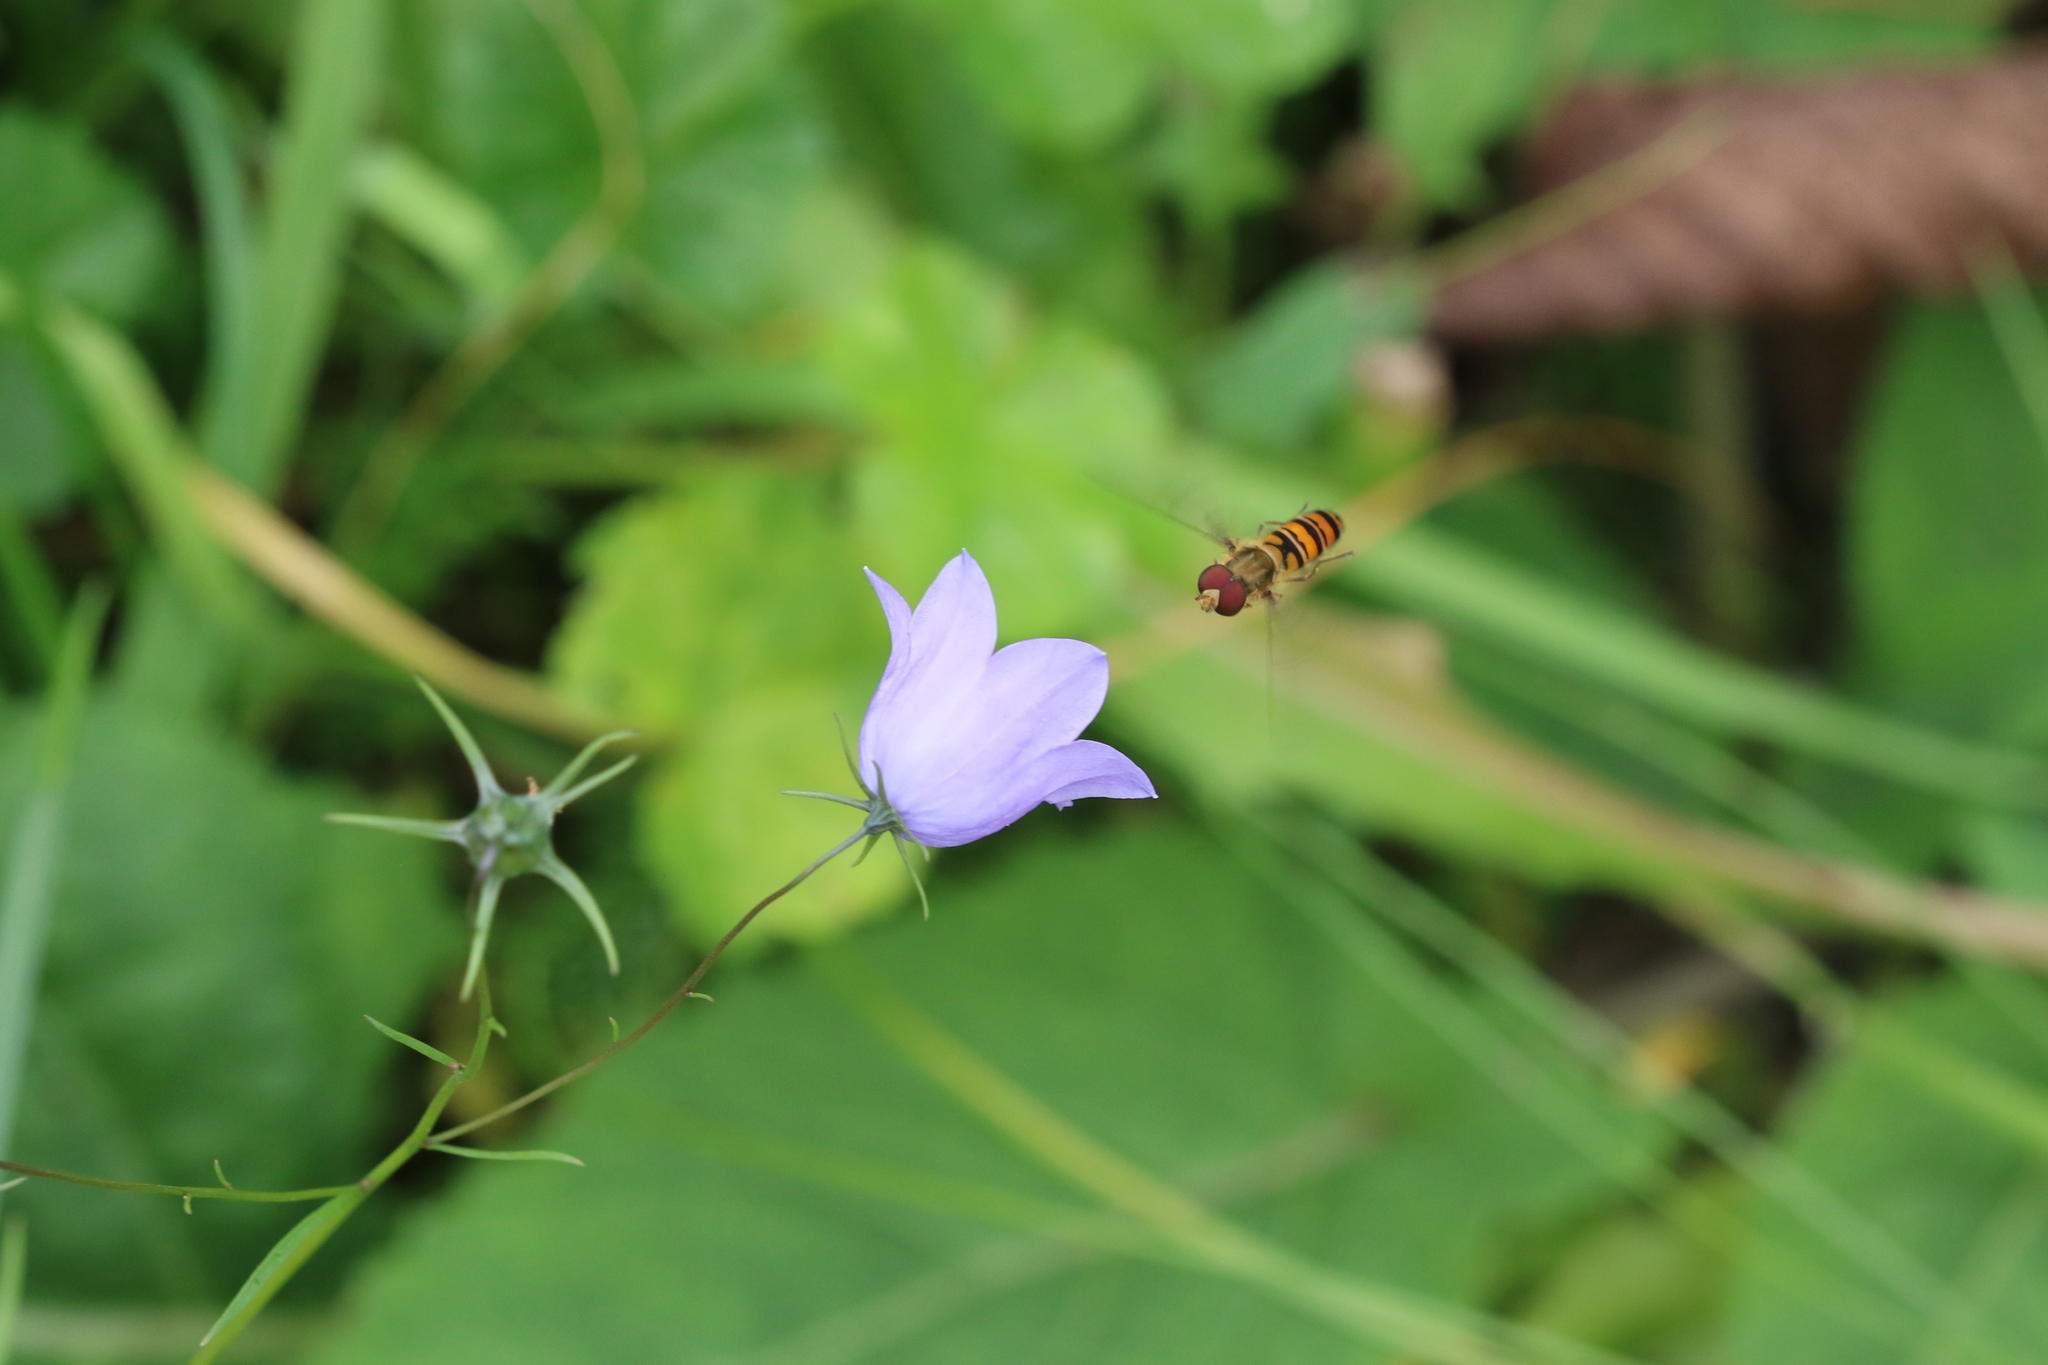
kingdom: Animalia
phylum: Arthropoda
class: Insecta
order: Diptera
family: Syrphidae
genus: Episyrphus
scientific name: Episyrphus balteatus
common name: Marmalade hoverfly
